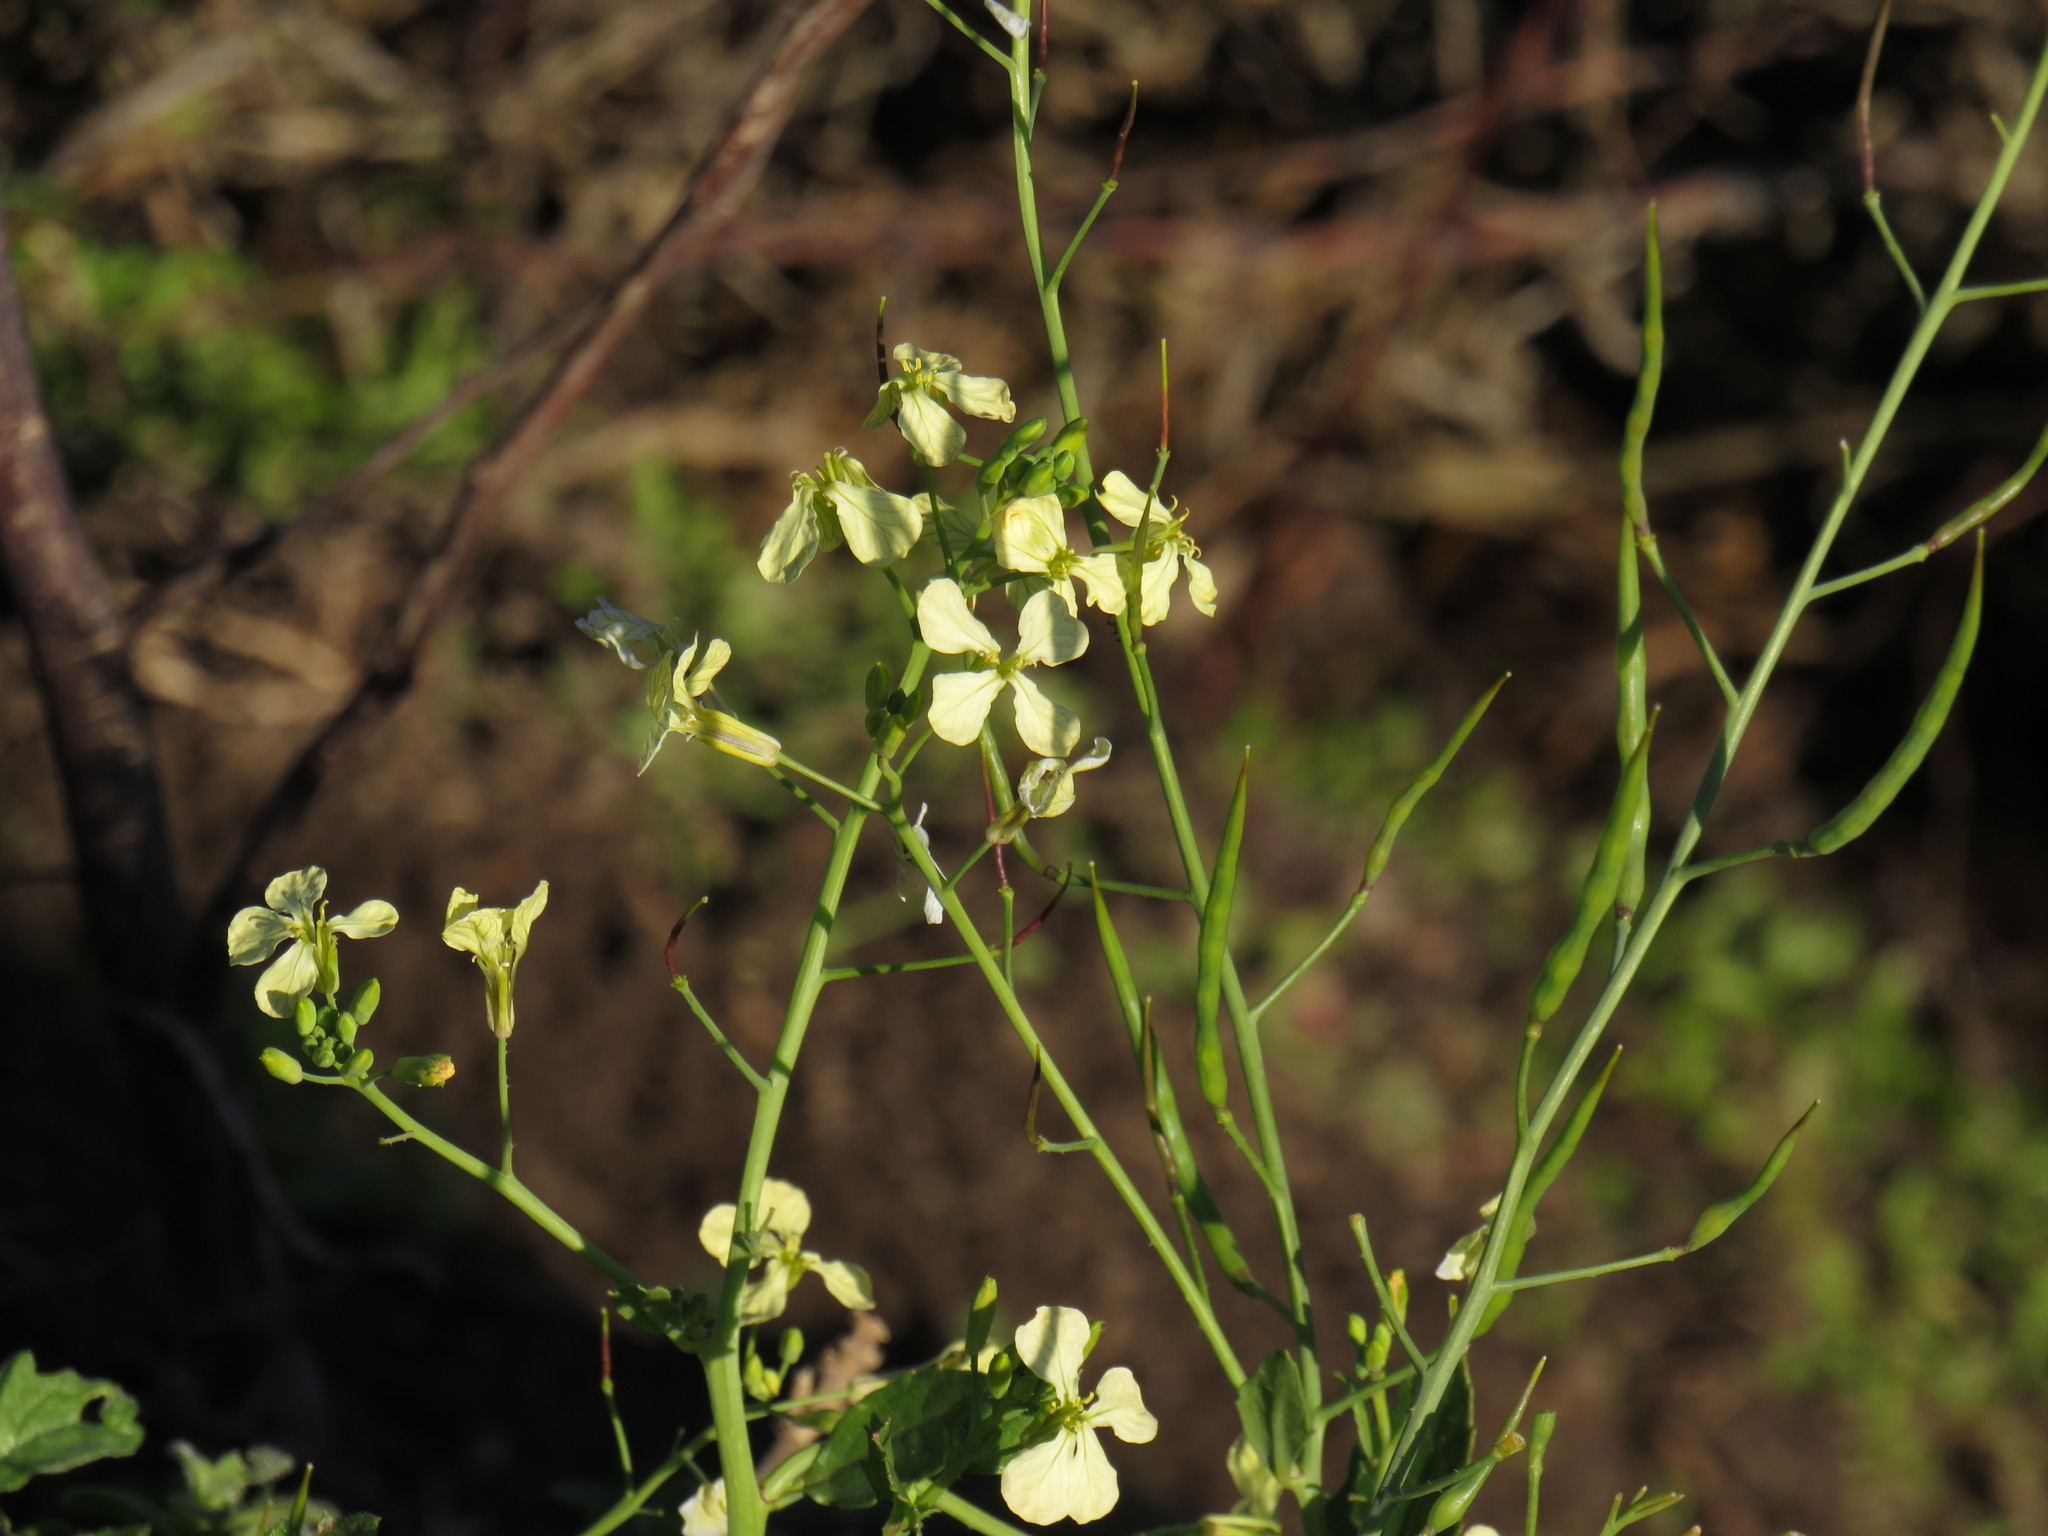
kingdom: Plantae
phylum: Tracheophyta
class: Magnoliopsida
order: Brassicales
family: Brassicaceae
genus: Raphanus
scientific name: Raphanus raphanistrum
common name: Wild radish
